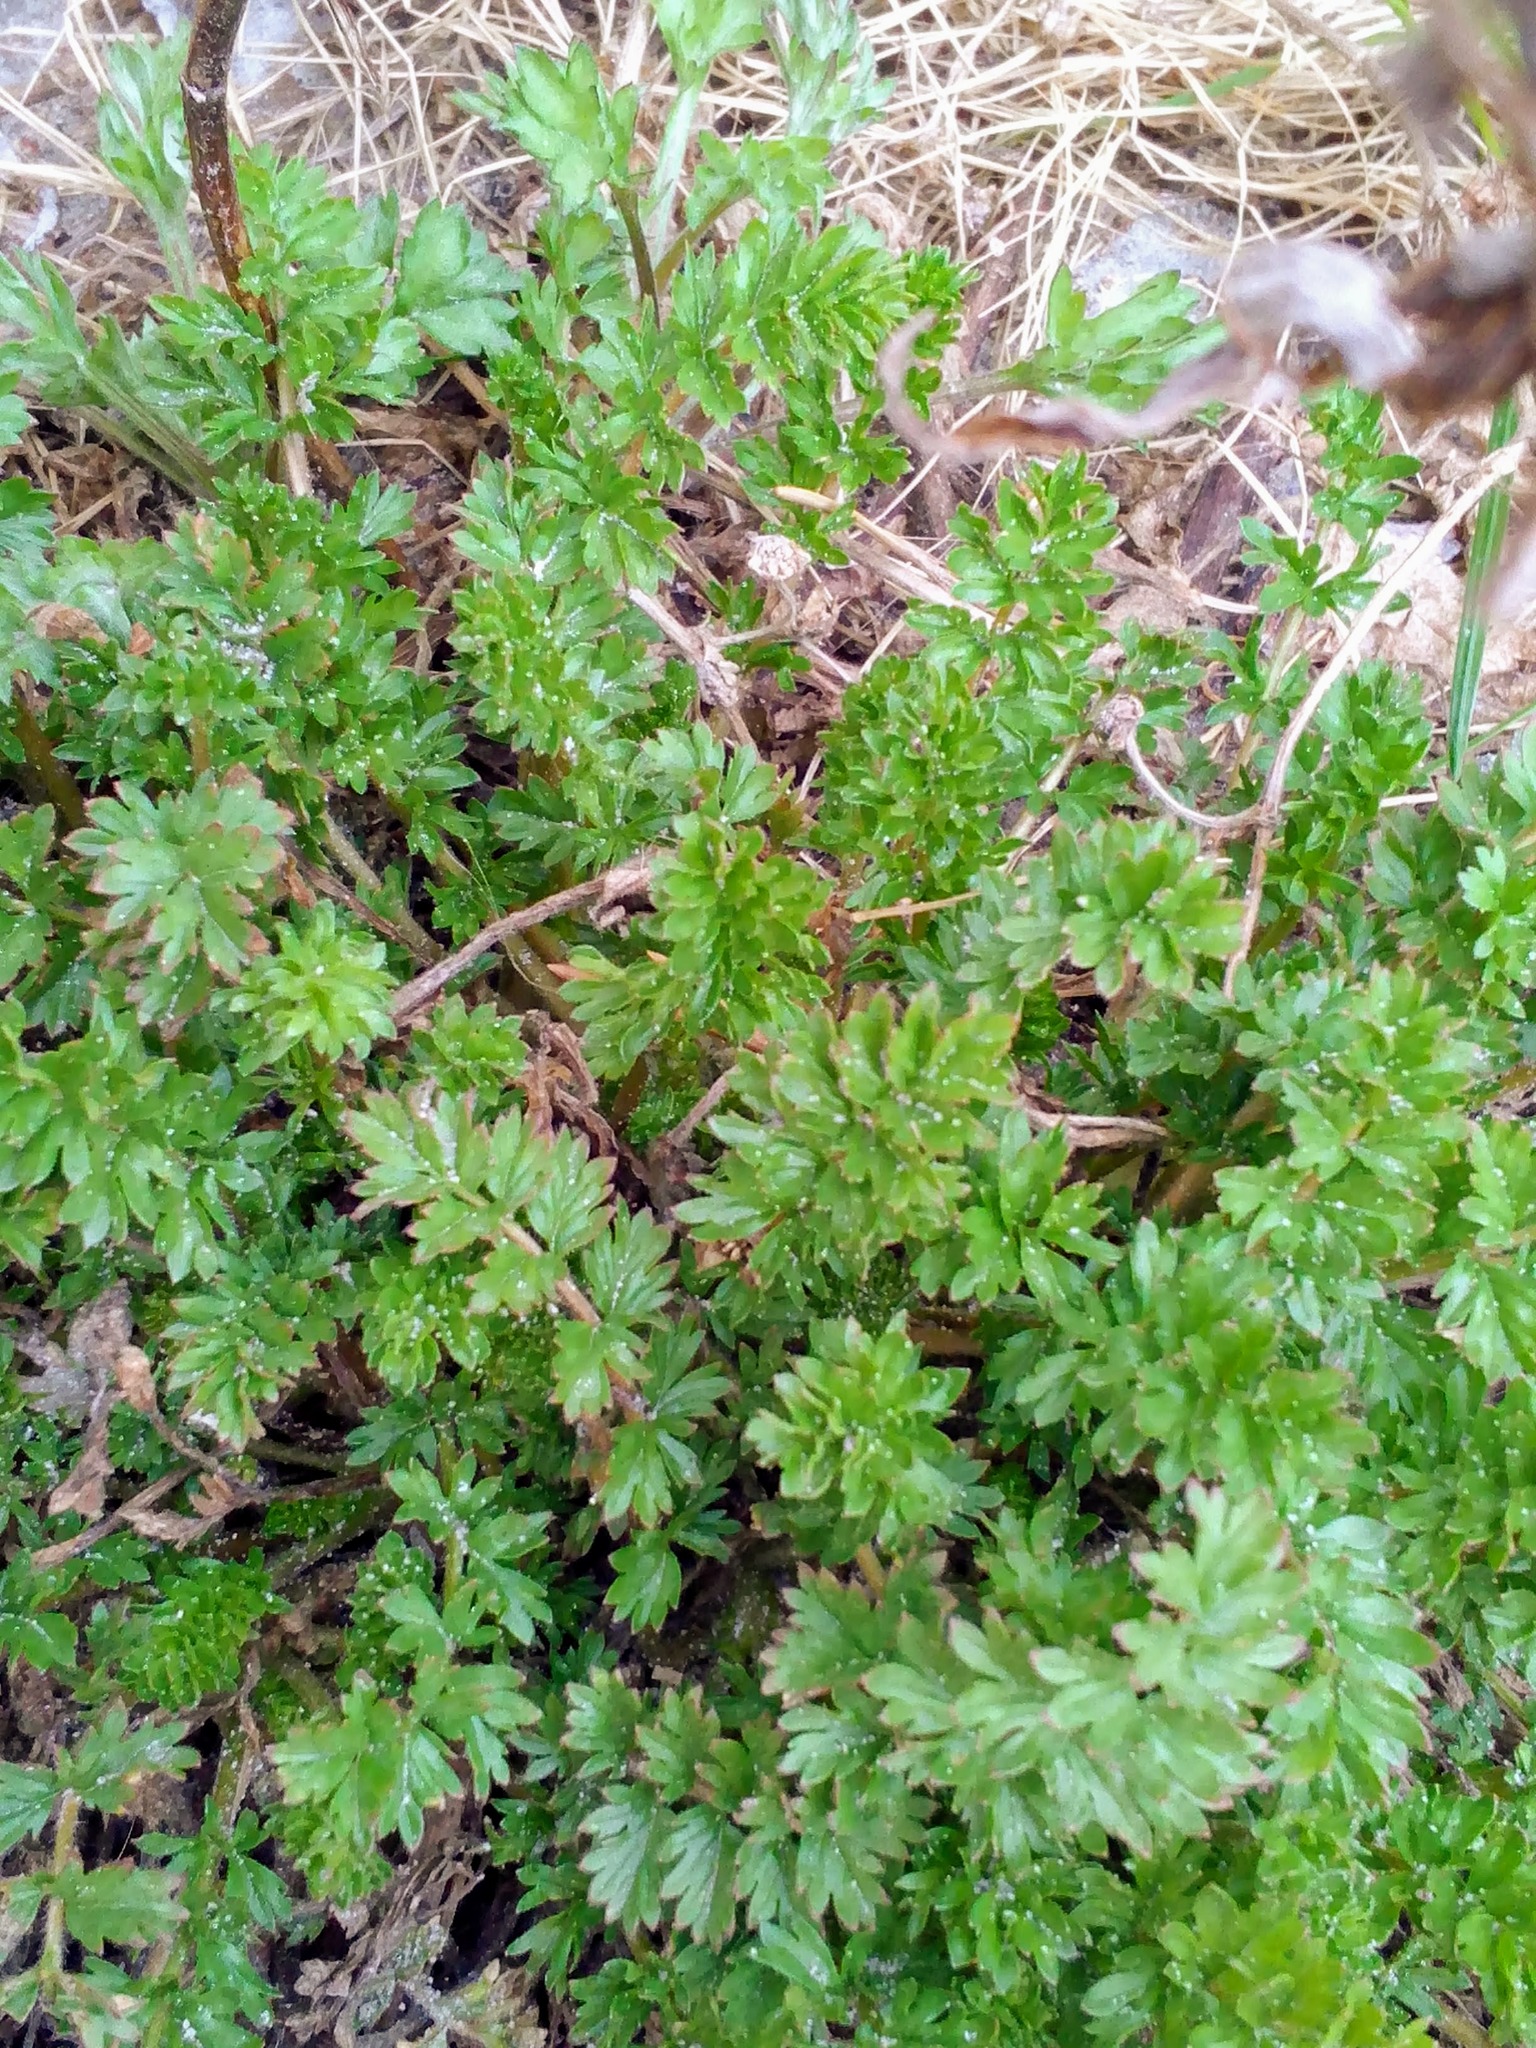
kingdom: Plantae
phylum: Tracheophyta
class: Magnoliopsida
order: Rosales
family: Rosaceae
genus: Potentilla
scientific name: Potentilla supina
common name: Prostrate cinquefoil
